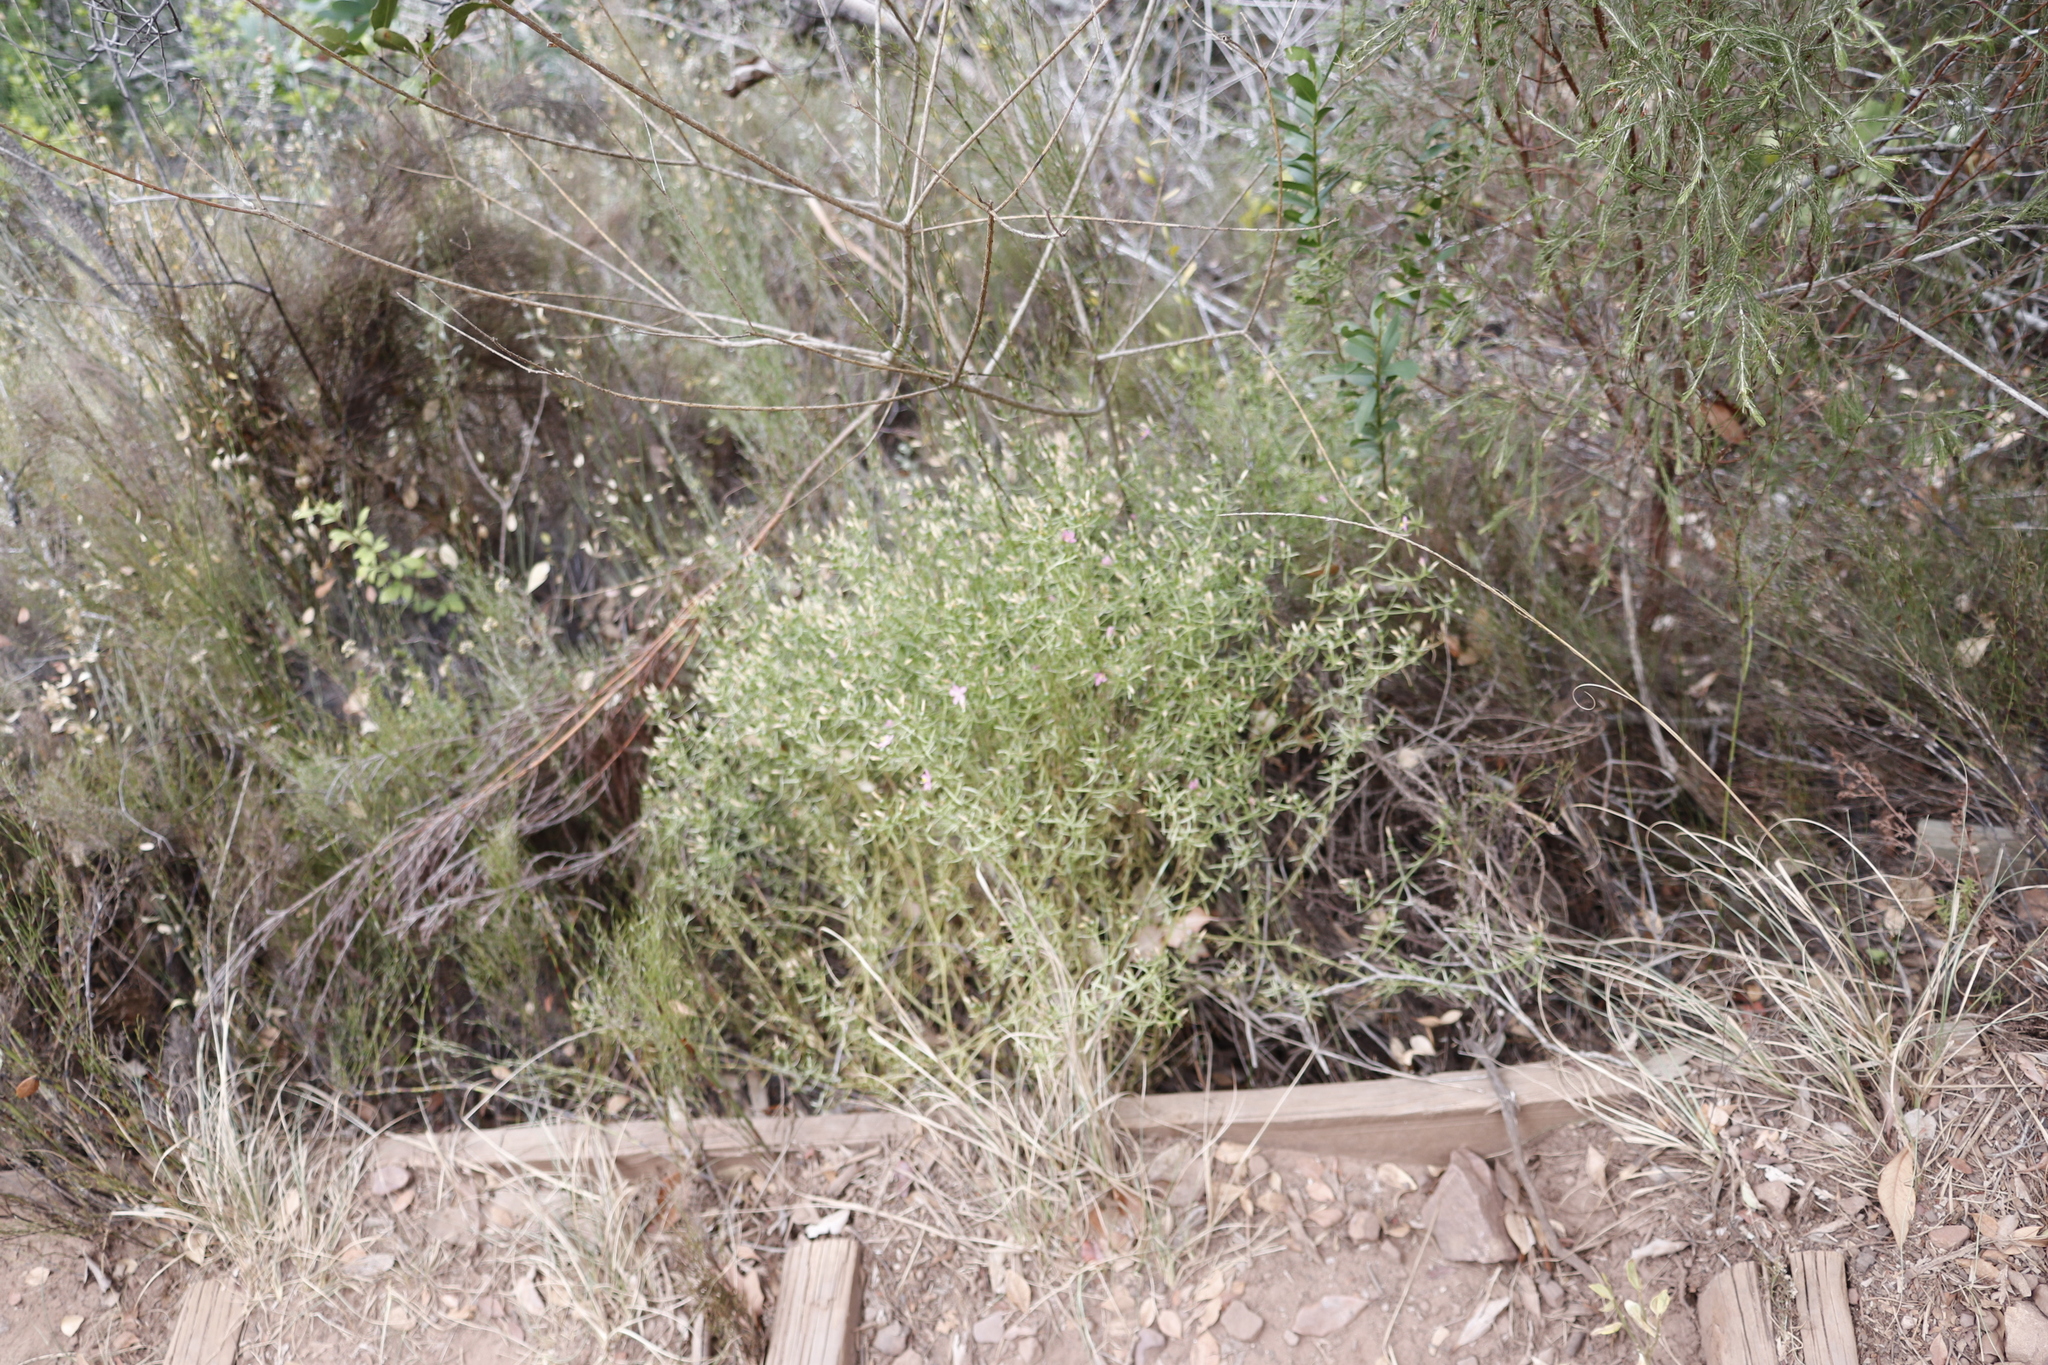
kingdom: Plantae
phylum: Tracheophyta
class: Magnoliopsida
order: Gentianales
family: Gentianaceae
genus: Chironia
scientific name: Chironia baccifera
